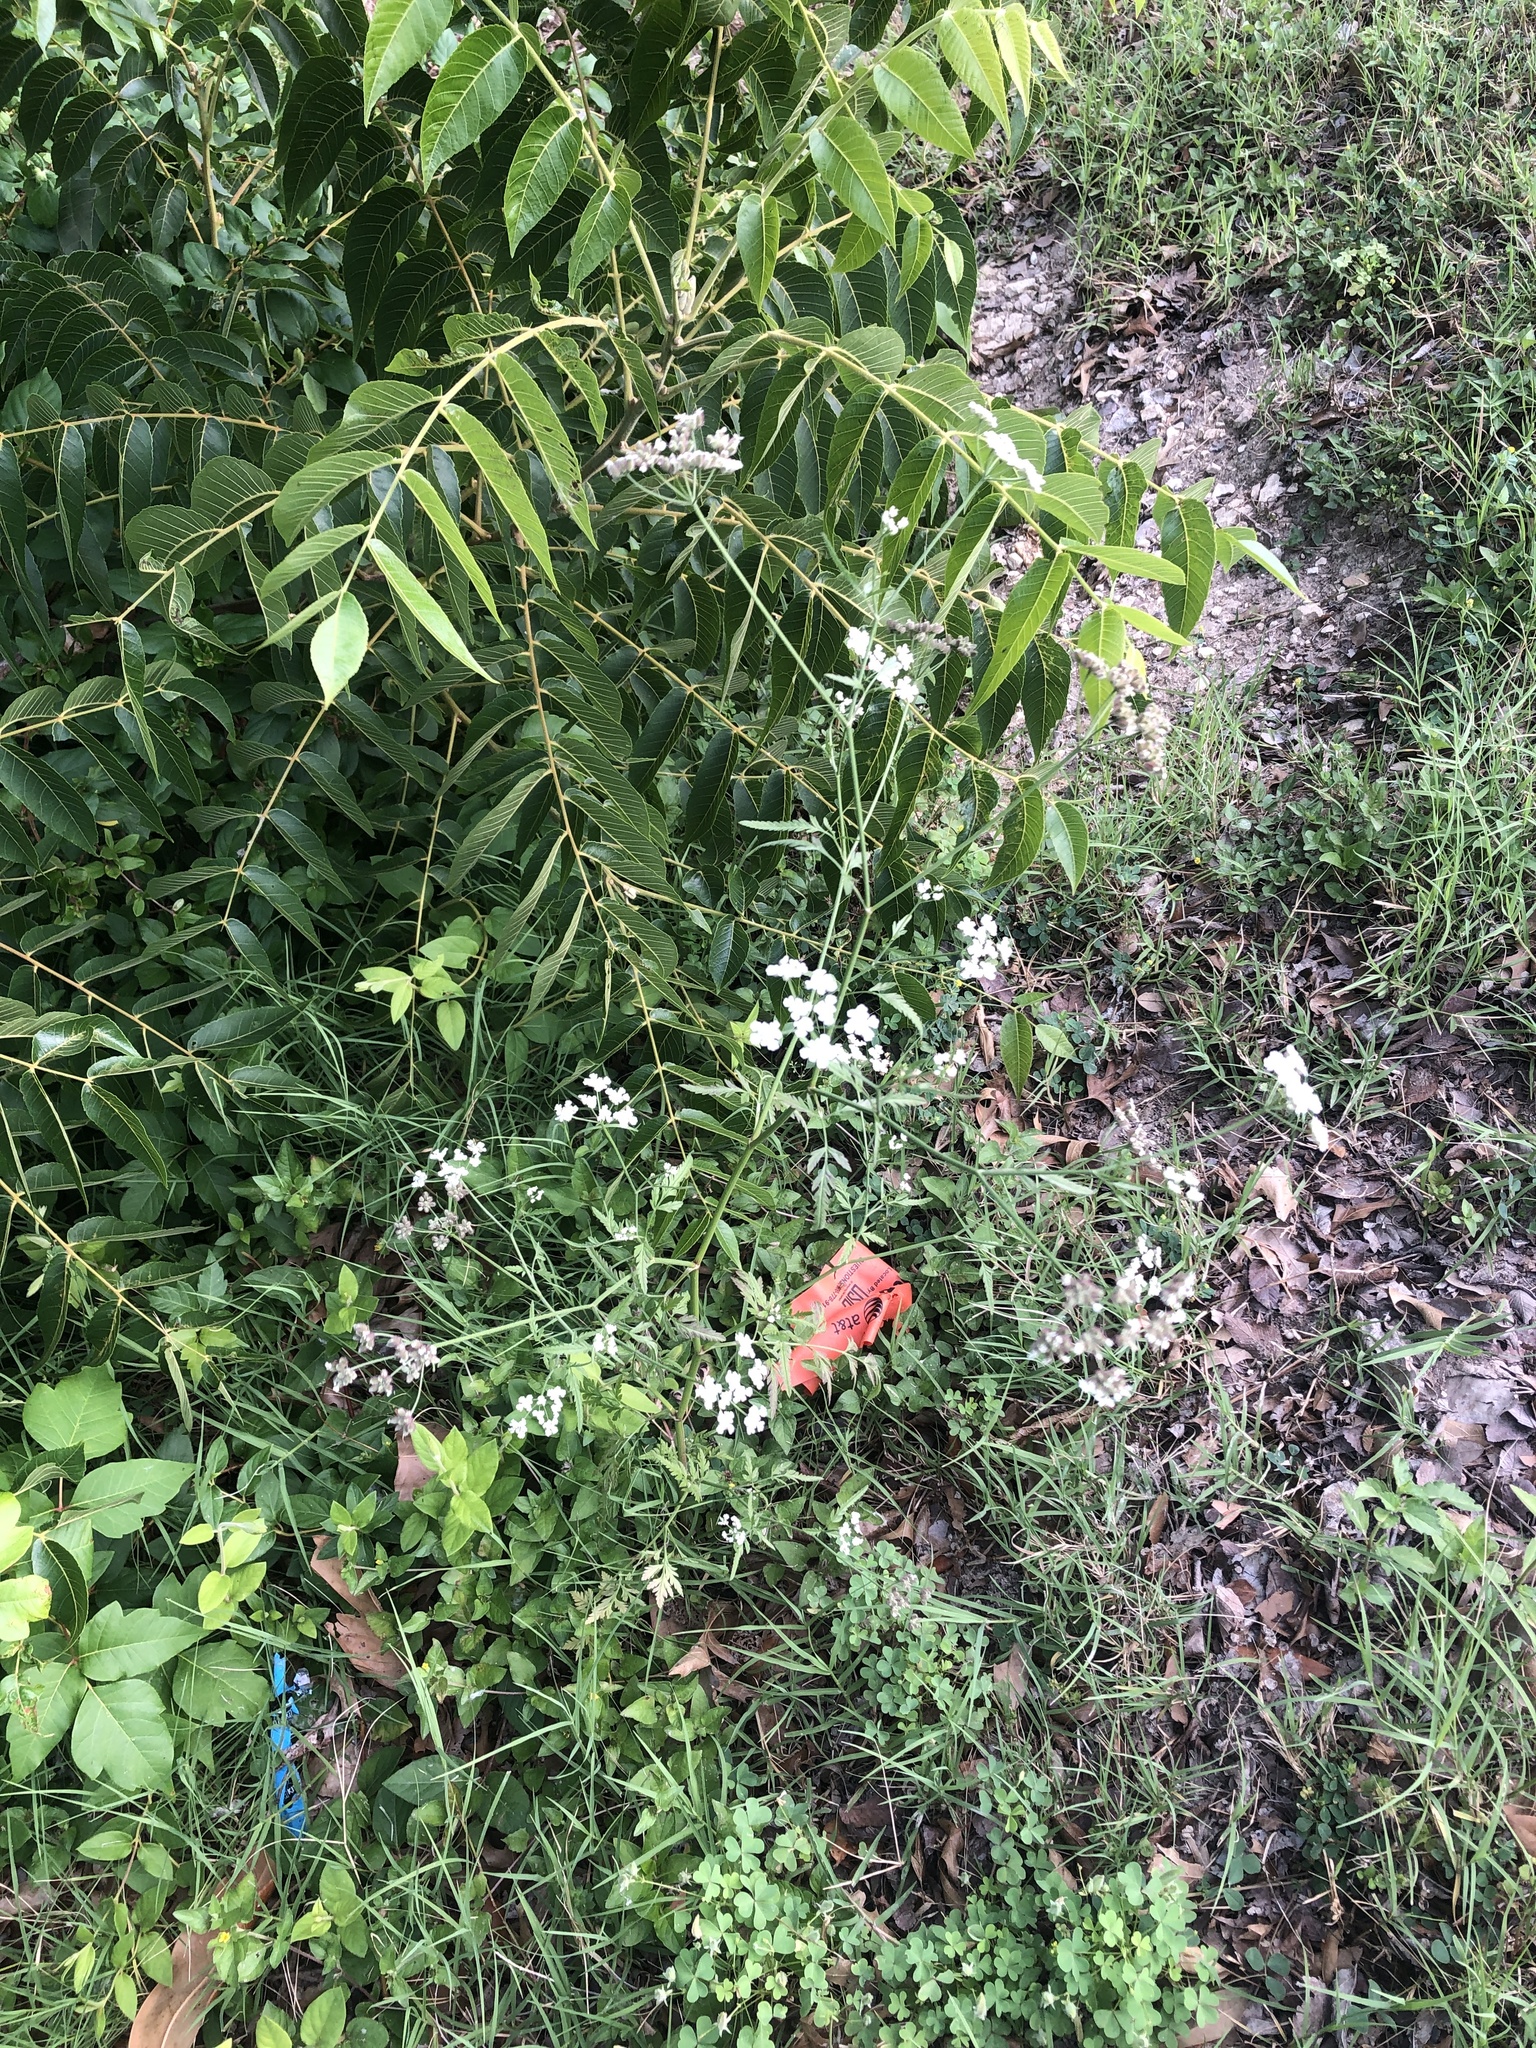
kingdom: Plantae
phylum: Tracheophyta
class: Magnoliopsida
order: Apiales
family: Apiaceae
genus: Torilis
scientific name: Torilis arvensis
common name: Spreading hedge-parsley
